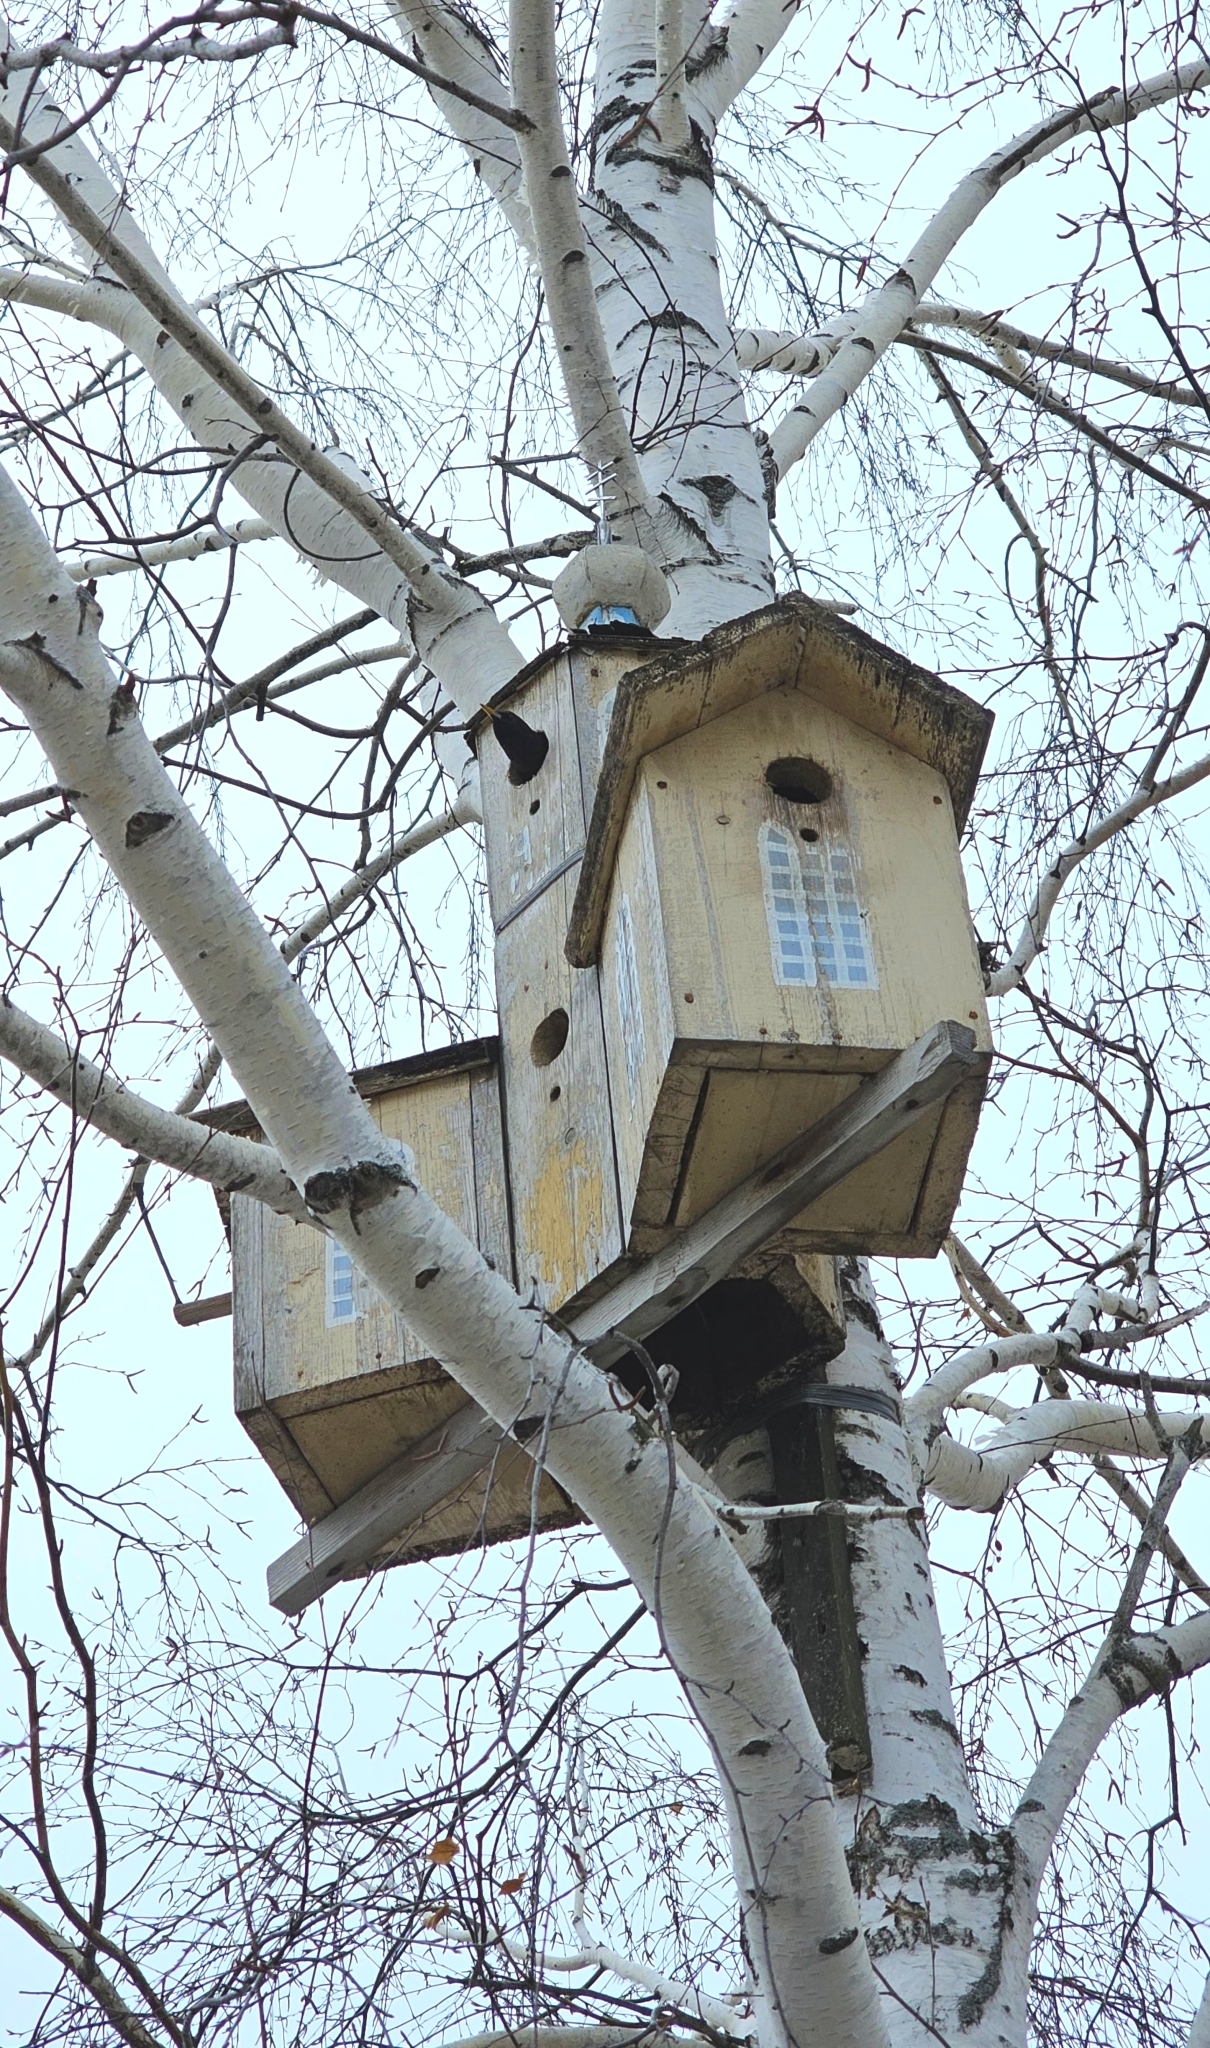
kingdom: Animalia
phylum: Chordata
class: Aves
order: Passeriformes
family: Sturnidae
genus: Sturnus
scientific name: Sturnus vulgaris
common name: Common starling
